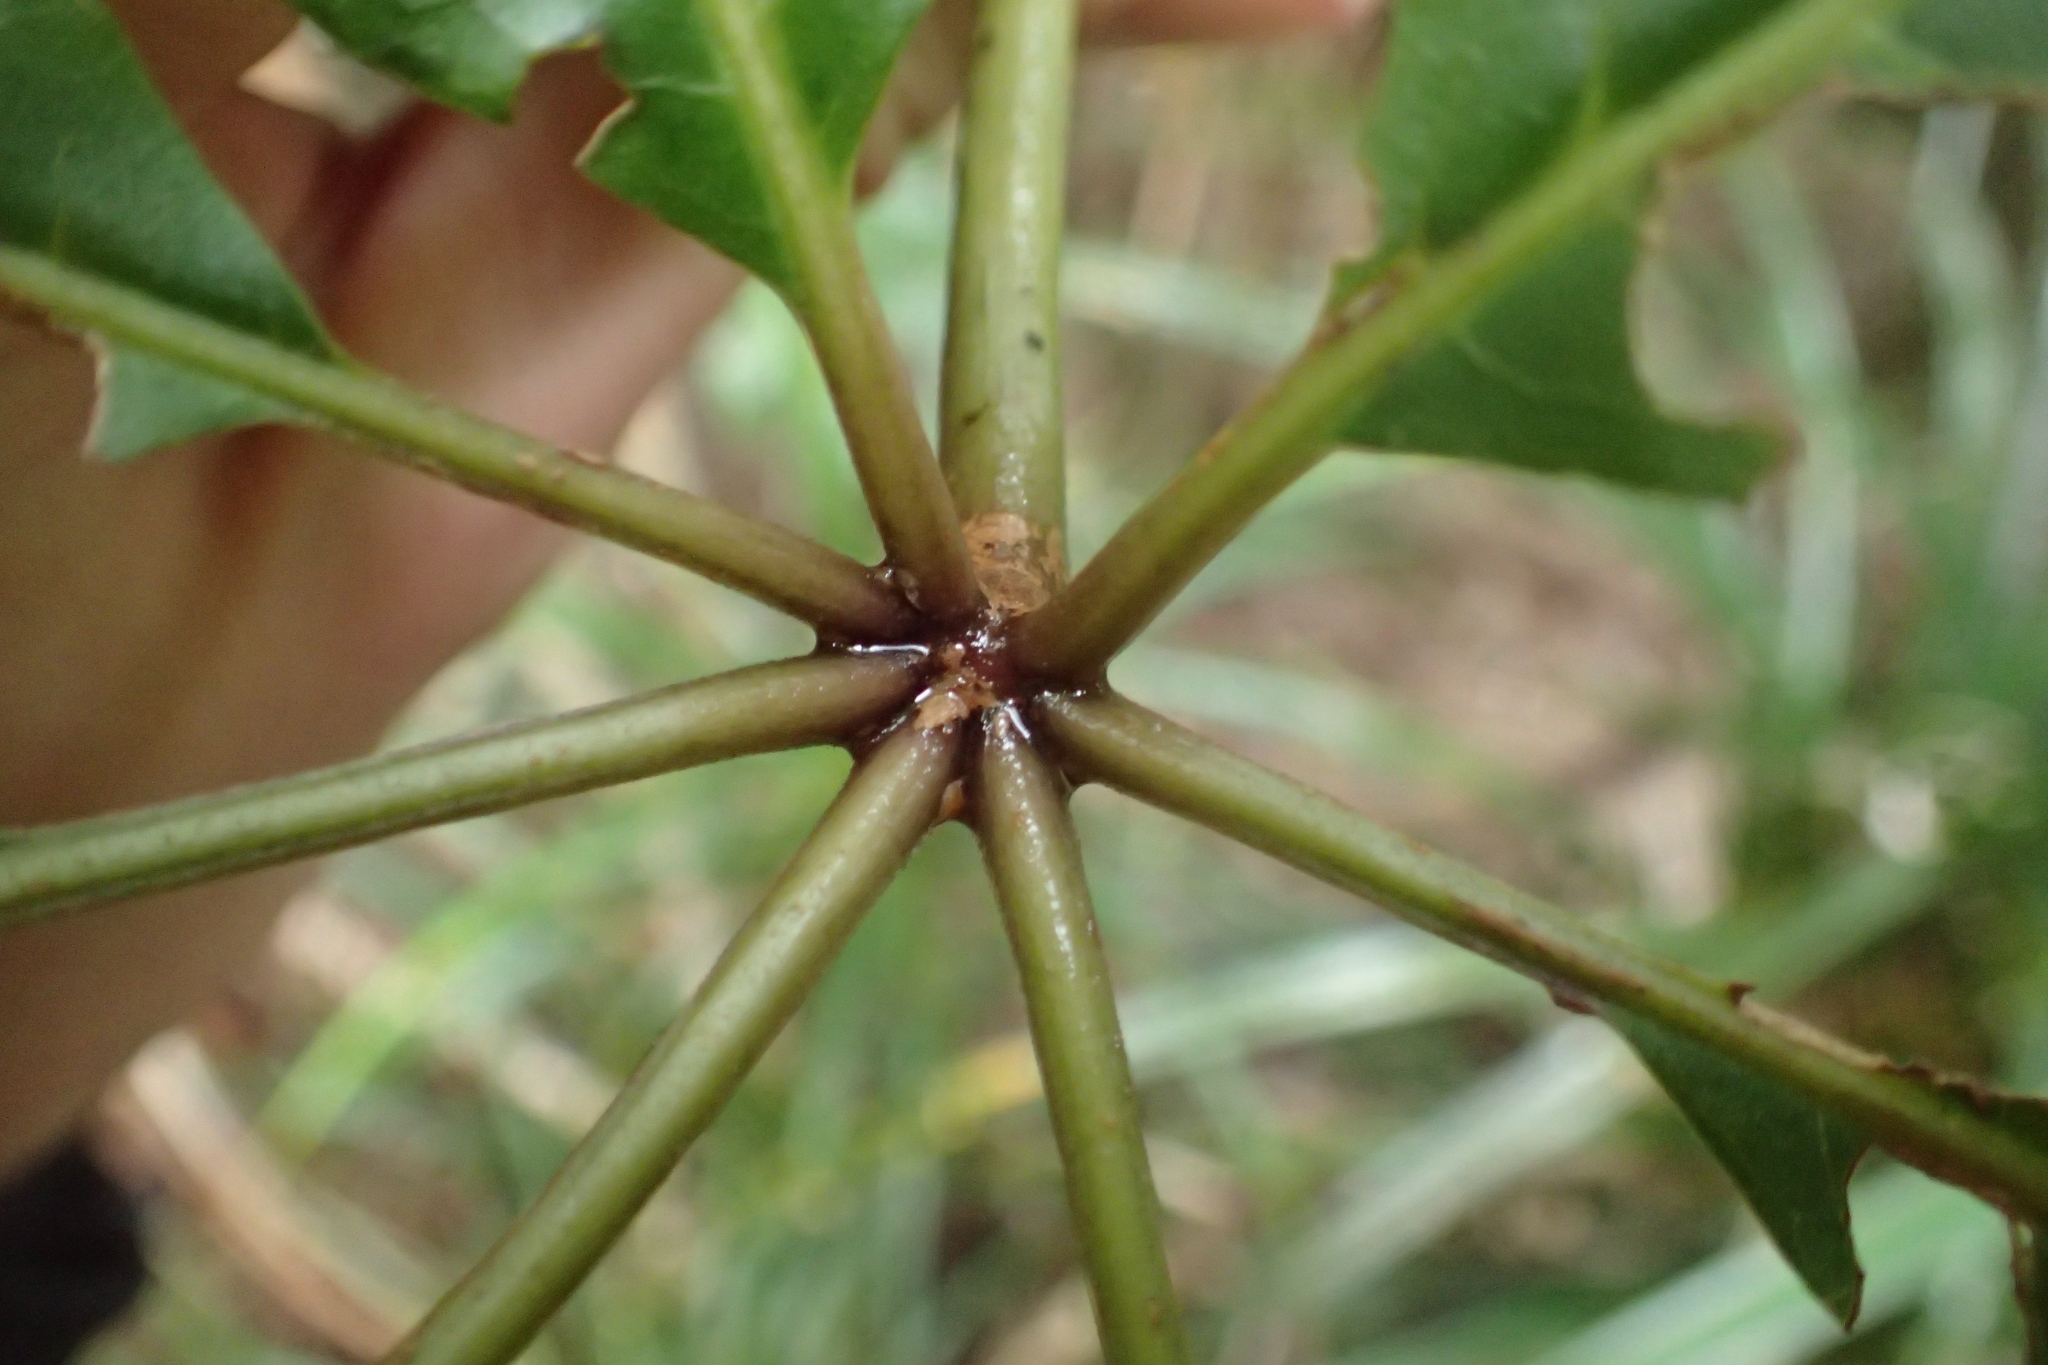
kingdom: Plantae
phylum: Tracheophyta
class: Magnoliopsida
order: Apiales
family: Araliaceae
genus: Schefflera
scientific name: Schefflera digitata
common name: Pate
